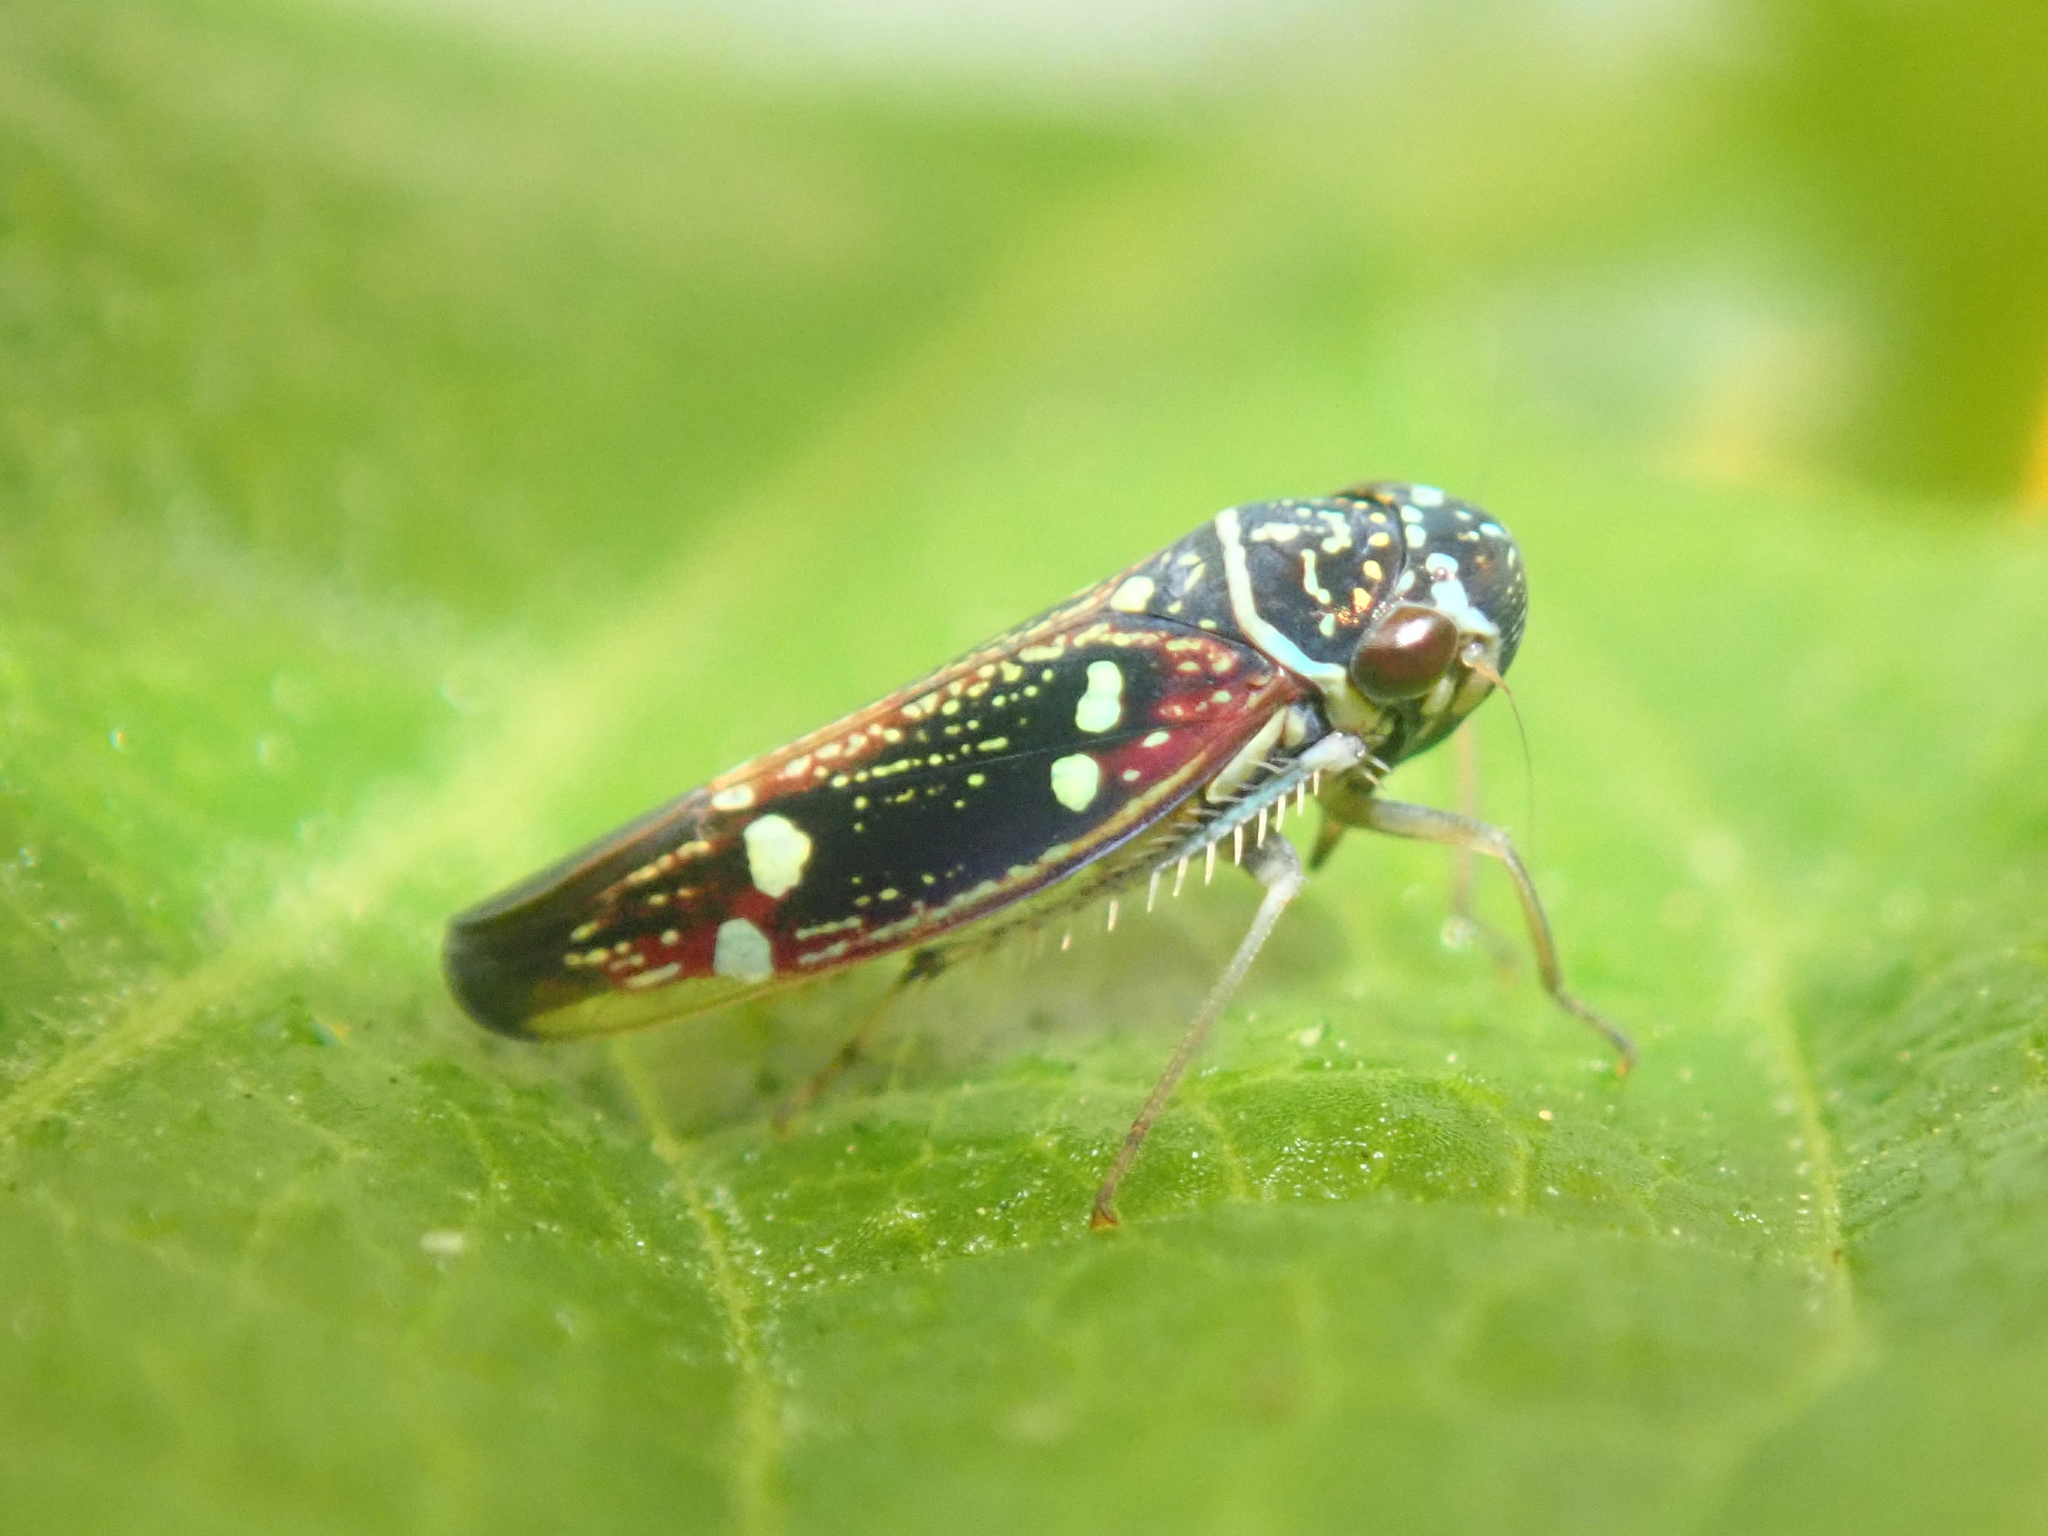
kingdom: Animalia
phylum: Arthropoda
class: Insecta
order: Hemiptera
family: Cicadellidae
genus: Macugonalia
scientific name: Macugonalia leucomelas
